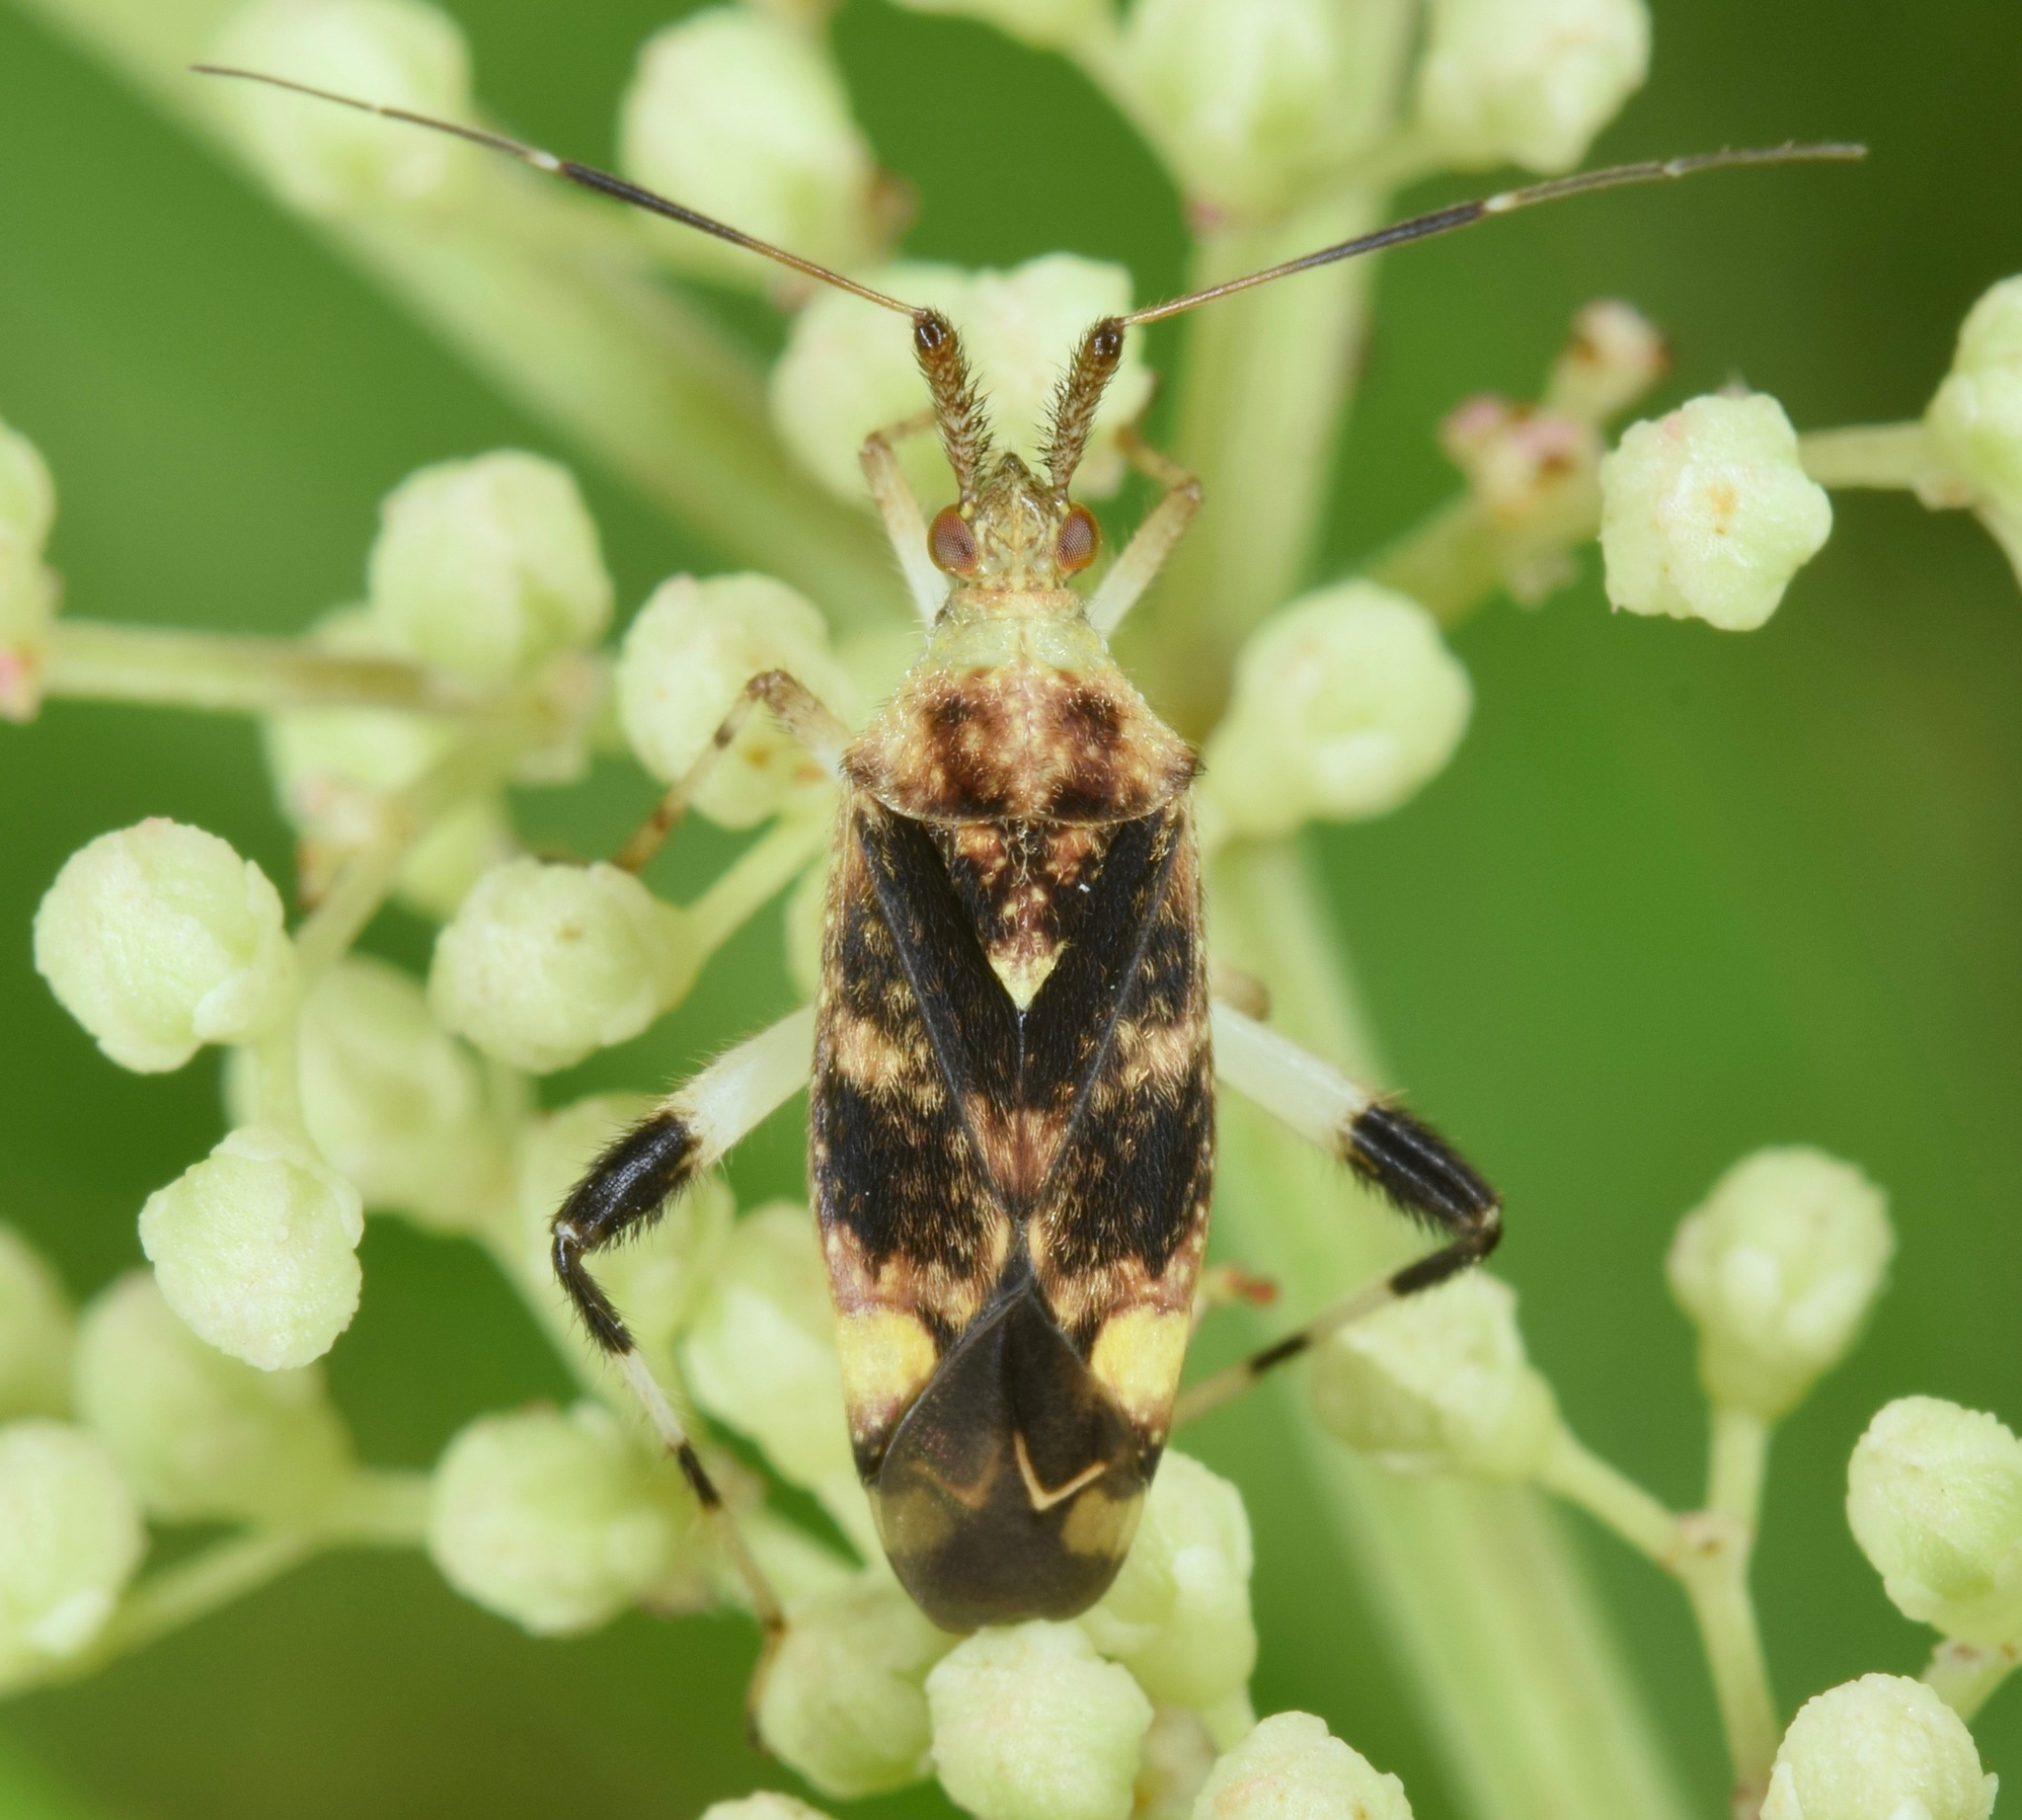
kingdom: Animalia
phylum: Arthropoda
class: Insecta
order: Hemiptera
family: Miridae
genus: Neurocolpus
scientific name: Neurocolpus jessiae
